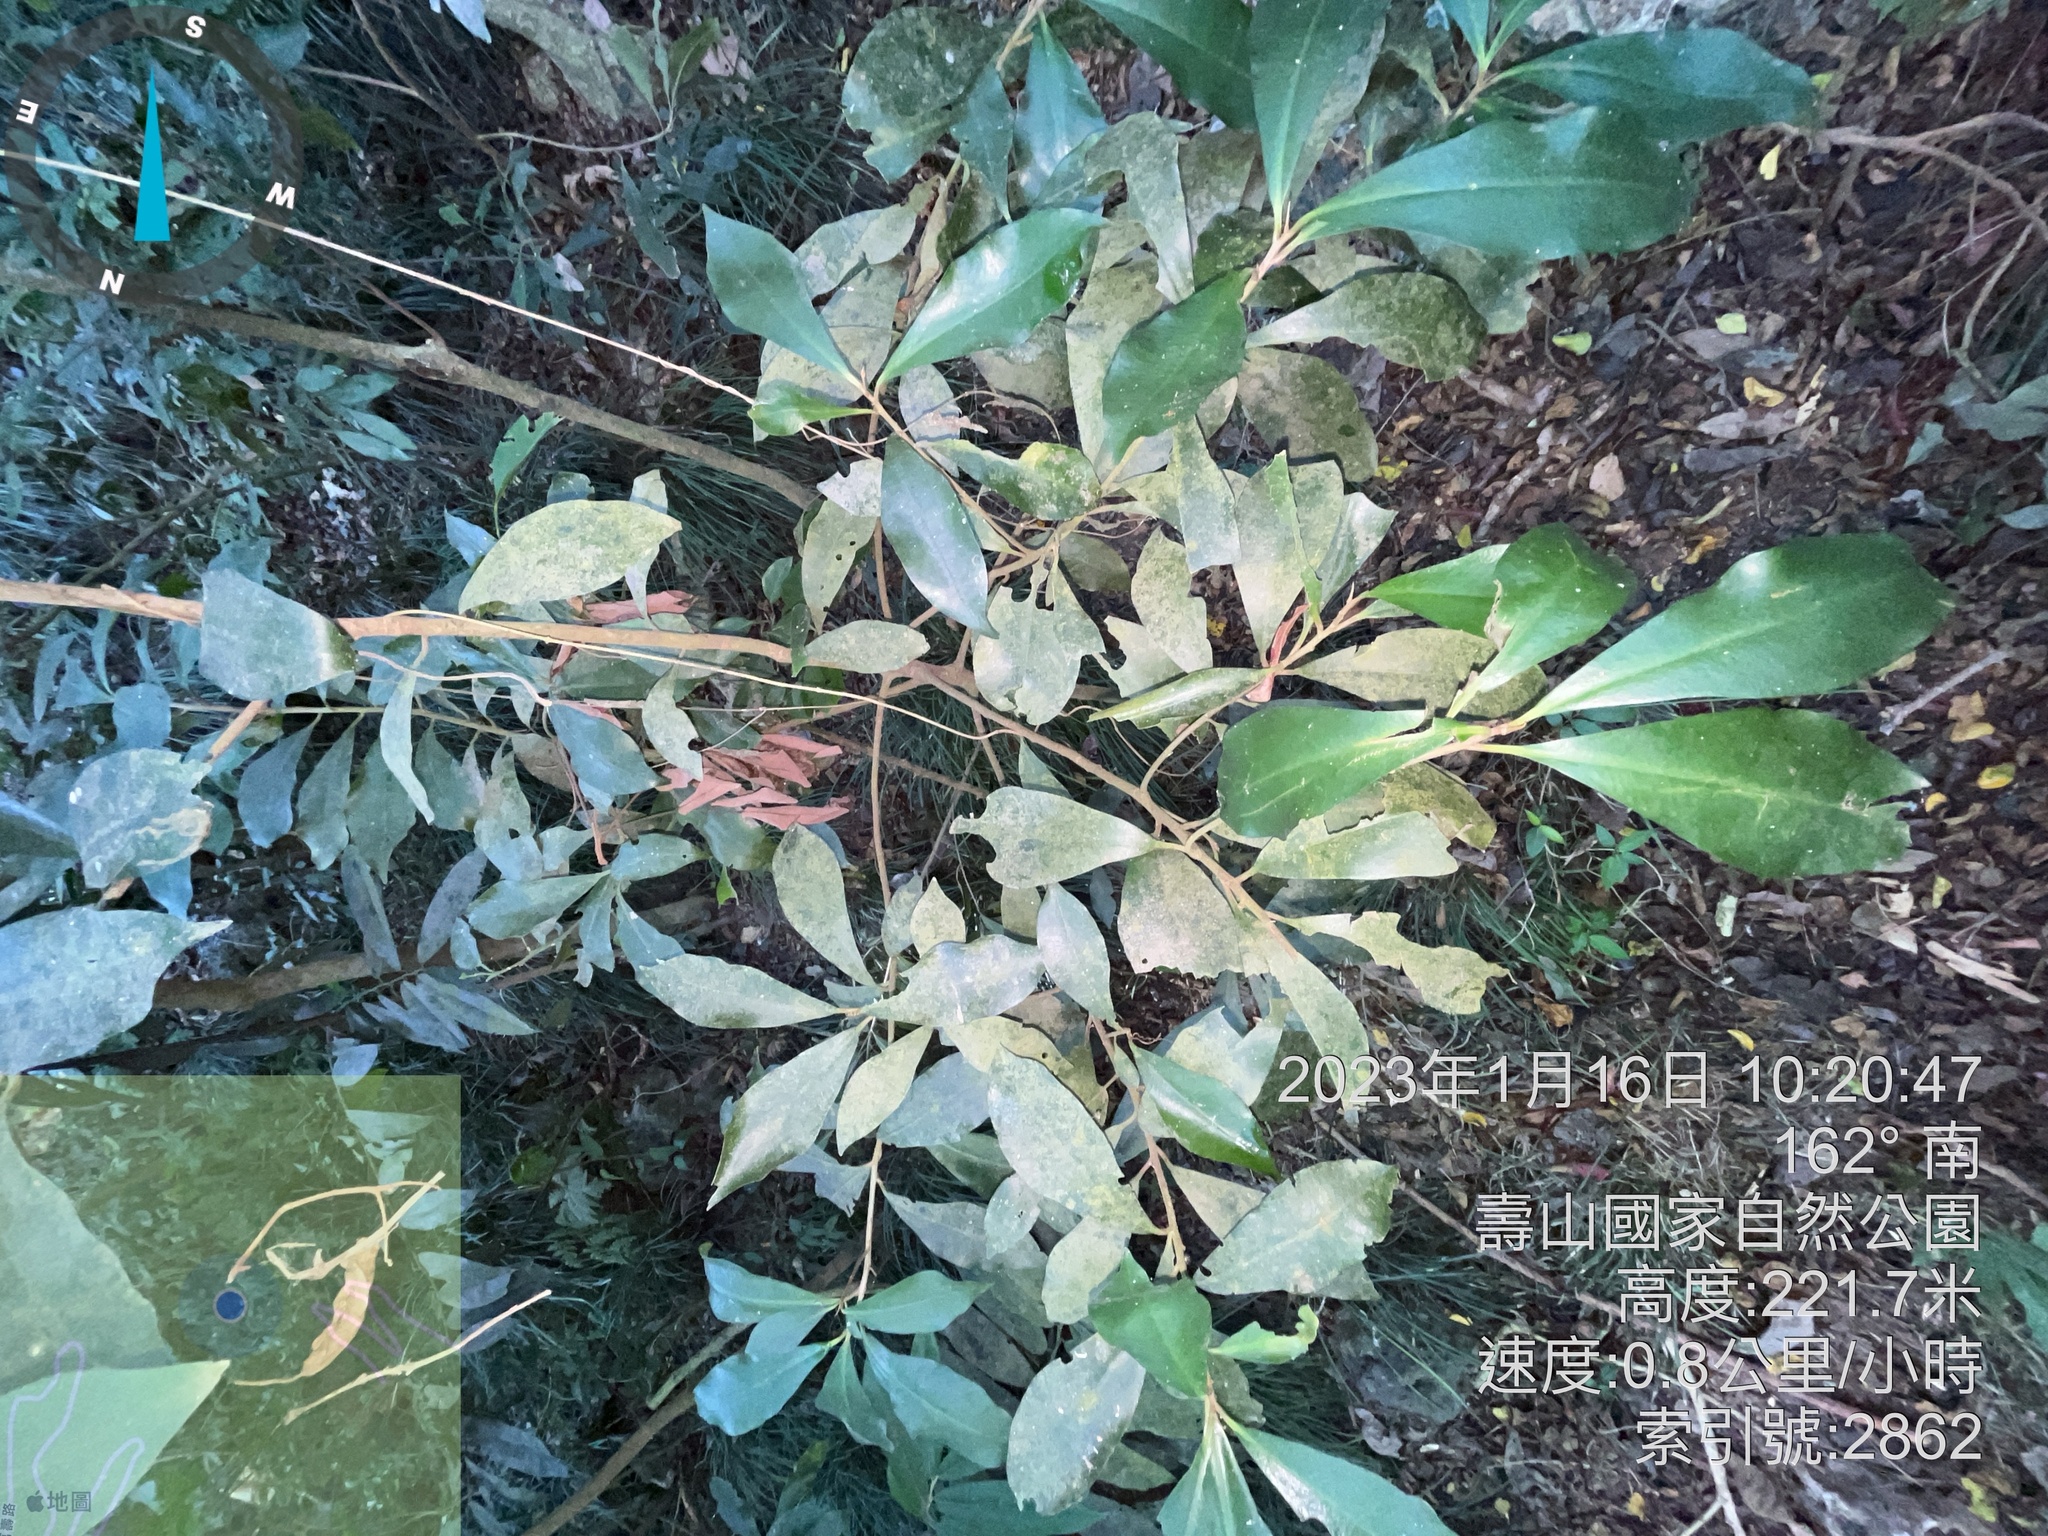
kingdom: Plantae
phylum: Tracheophyta
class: Magnoliopsida
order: Ericales
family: Primulaceae
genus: Ardisia
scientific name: Ardisia sieboldii
